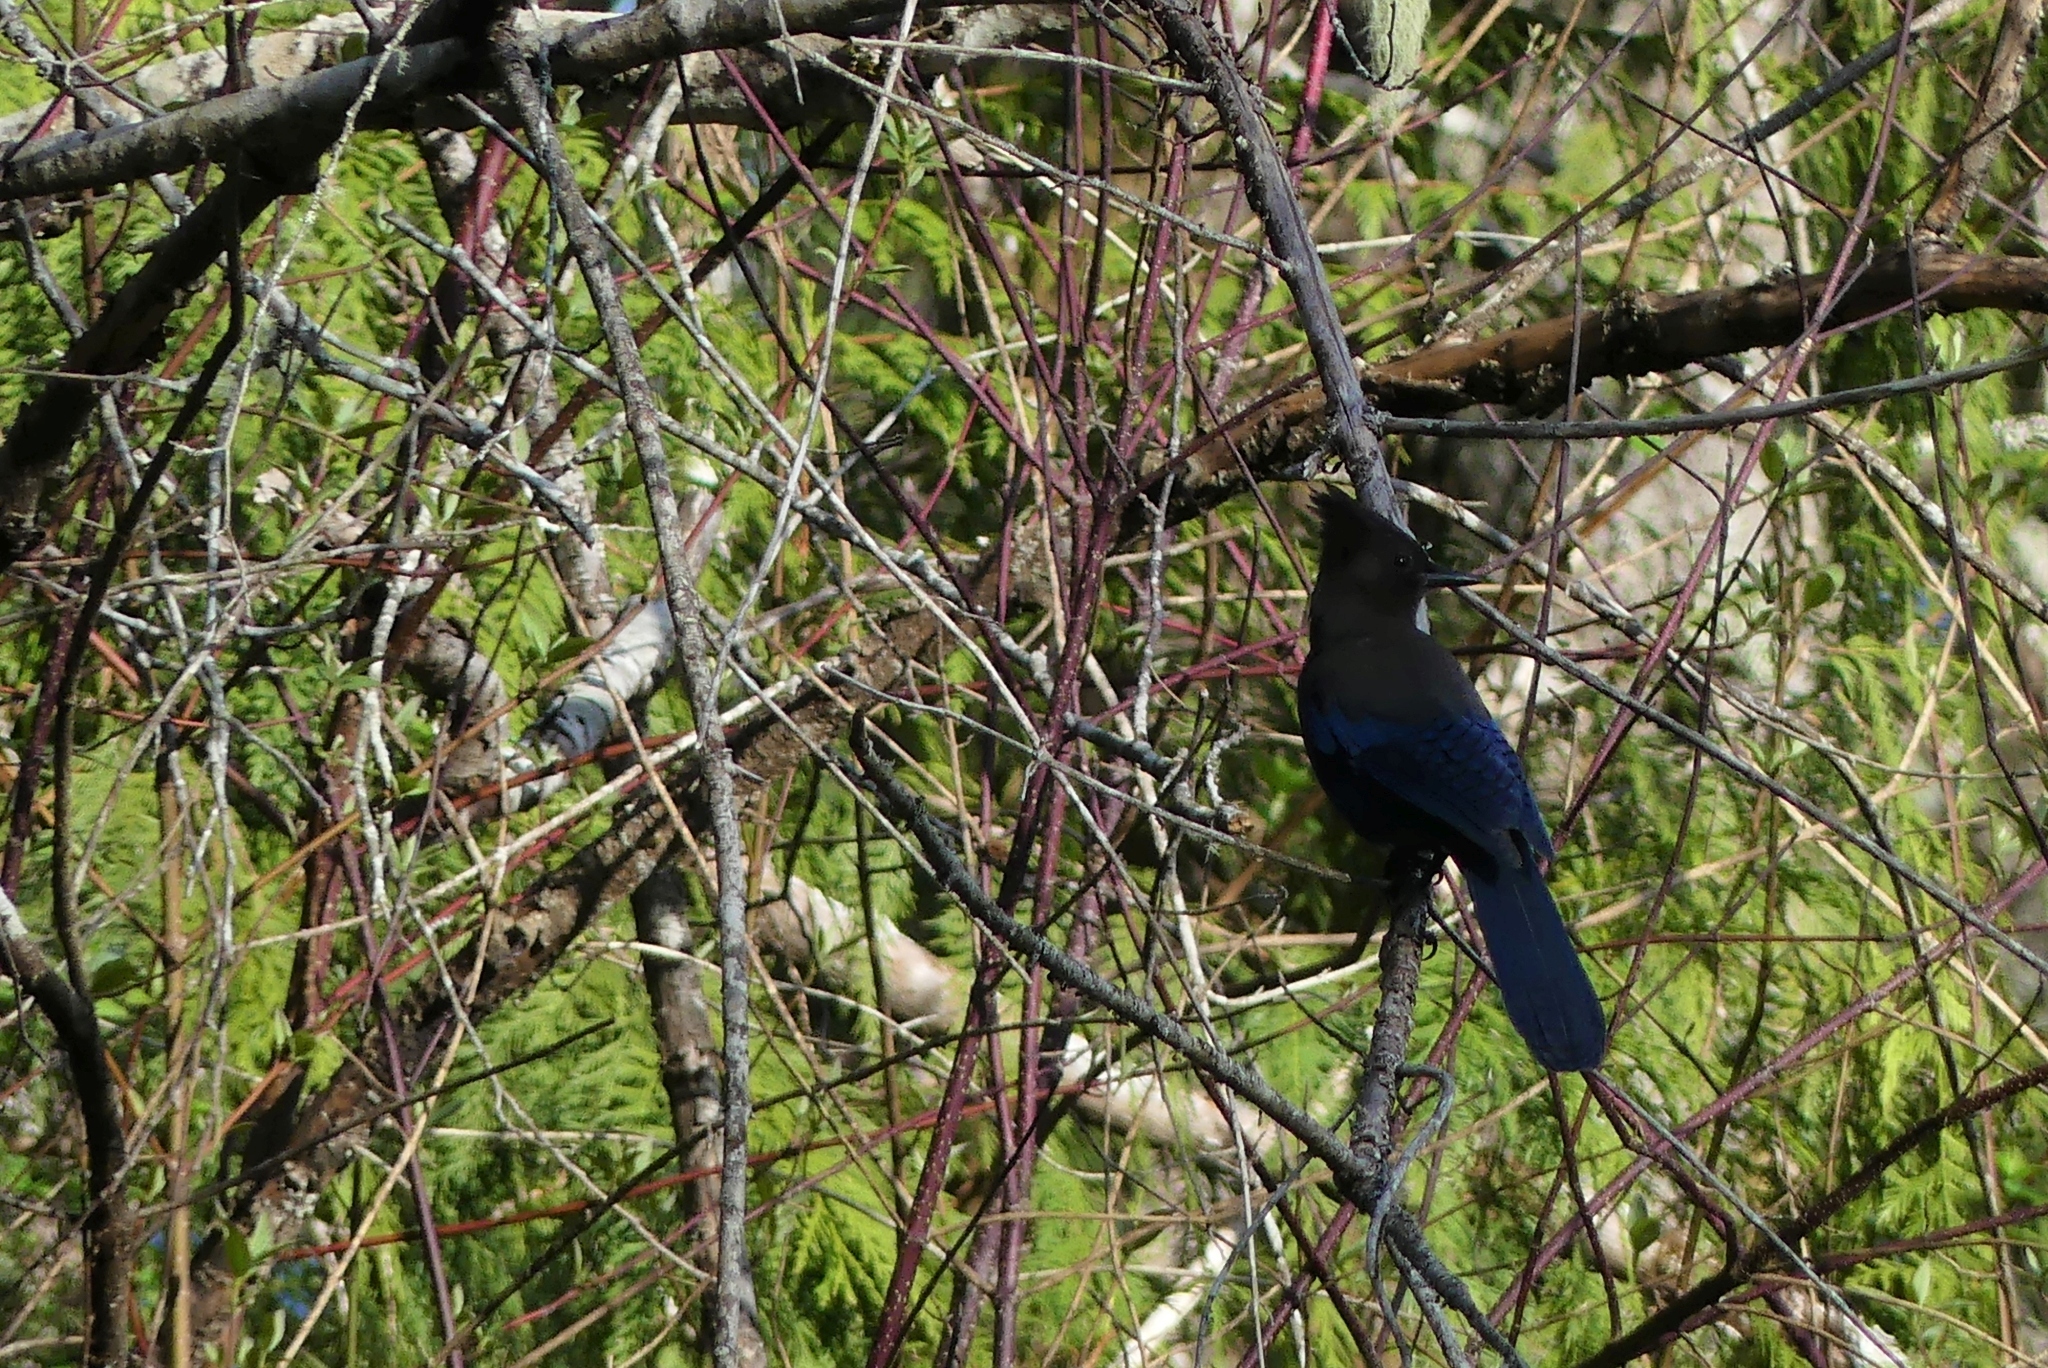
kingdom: Animalia
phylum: Chordata
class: Aves
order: Passeriformes
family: Corvidae
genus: Cyanocitta
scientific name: Cyanocitta stelleri
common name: Steller's jay
